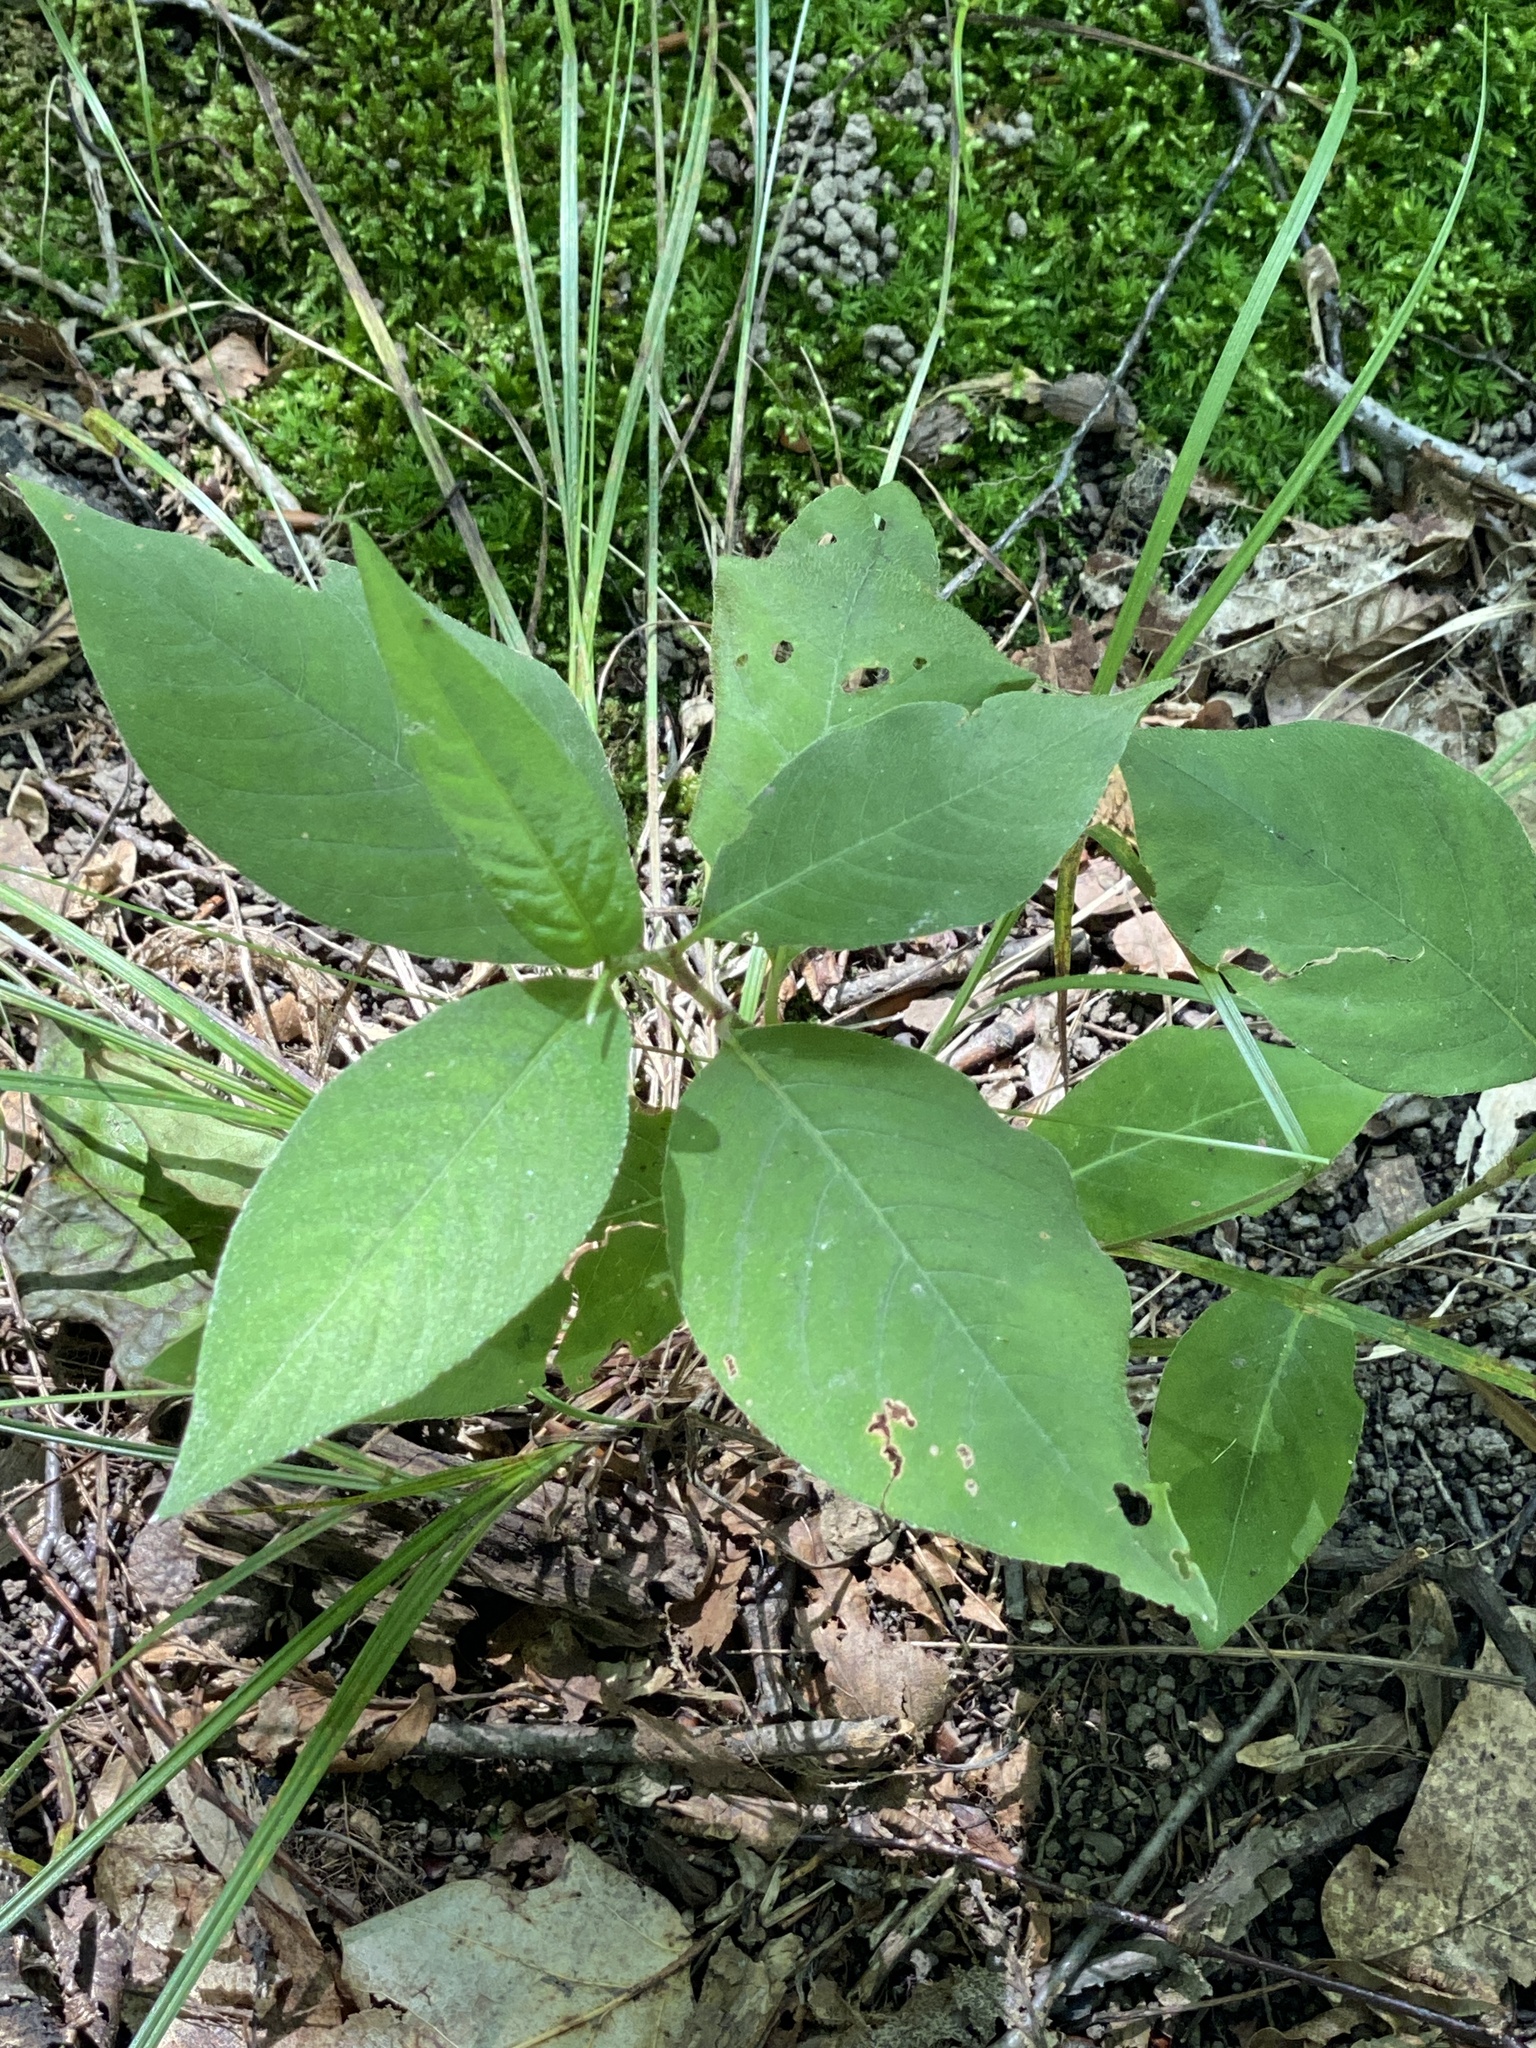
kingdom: Plantae
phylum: Tracheophyta
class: Magnoliopsida
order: Caryophyllales
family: Polygonaceae
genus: Persicaria
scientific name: Persicaria virginiana
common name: Jumpseed
